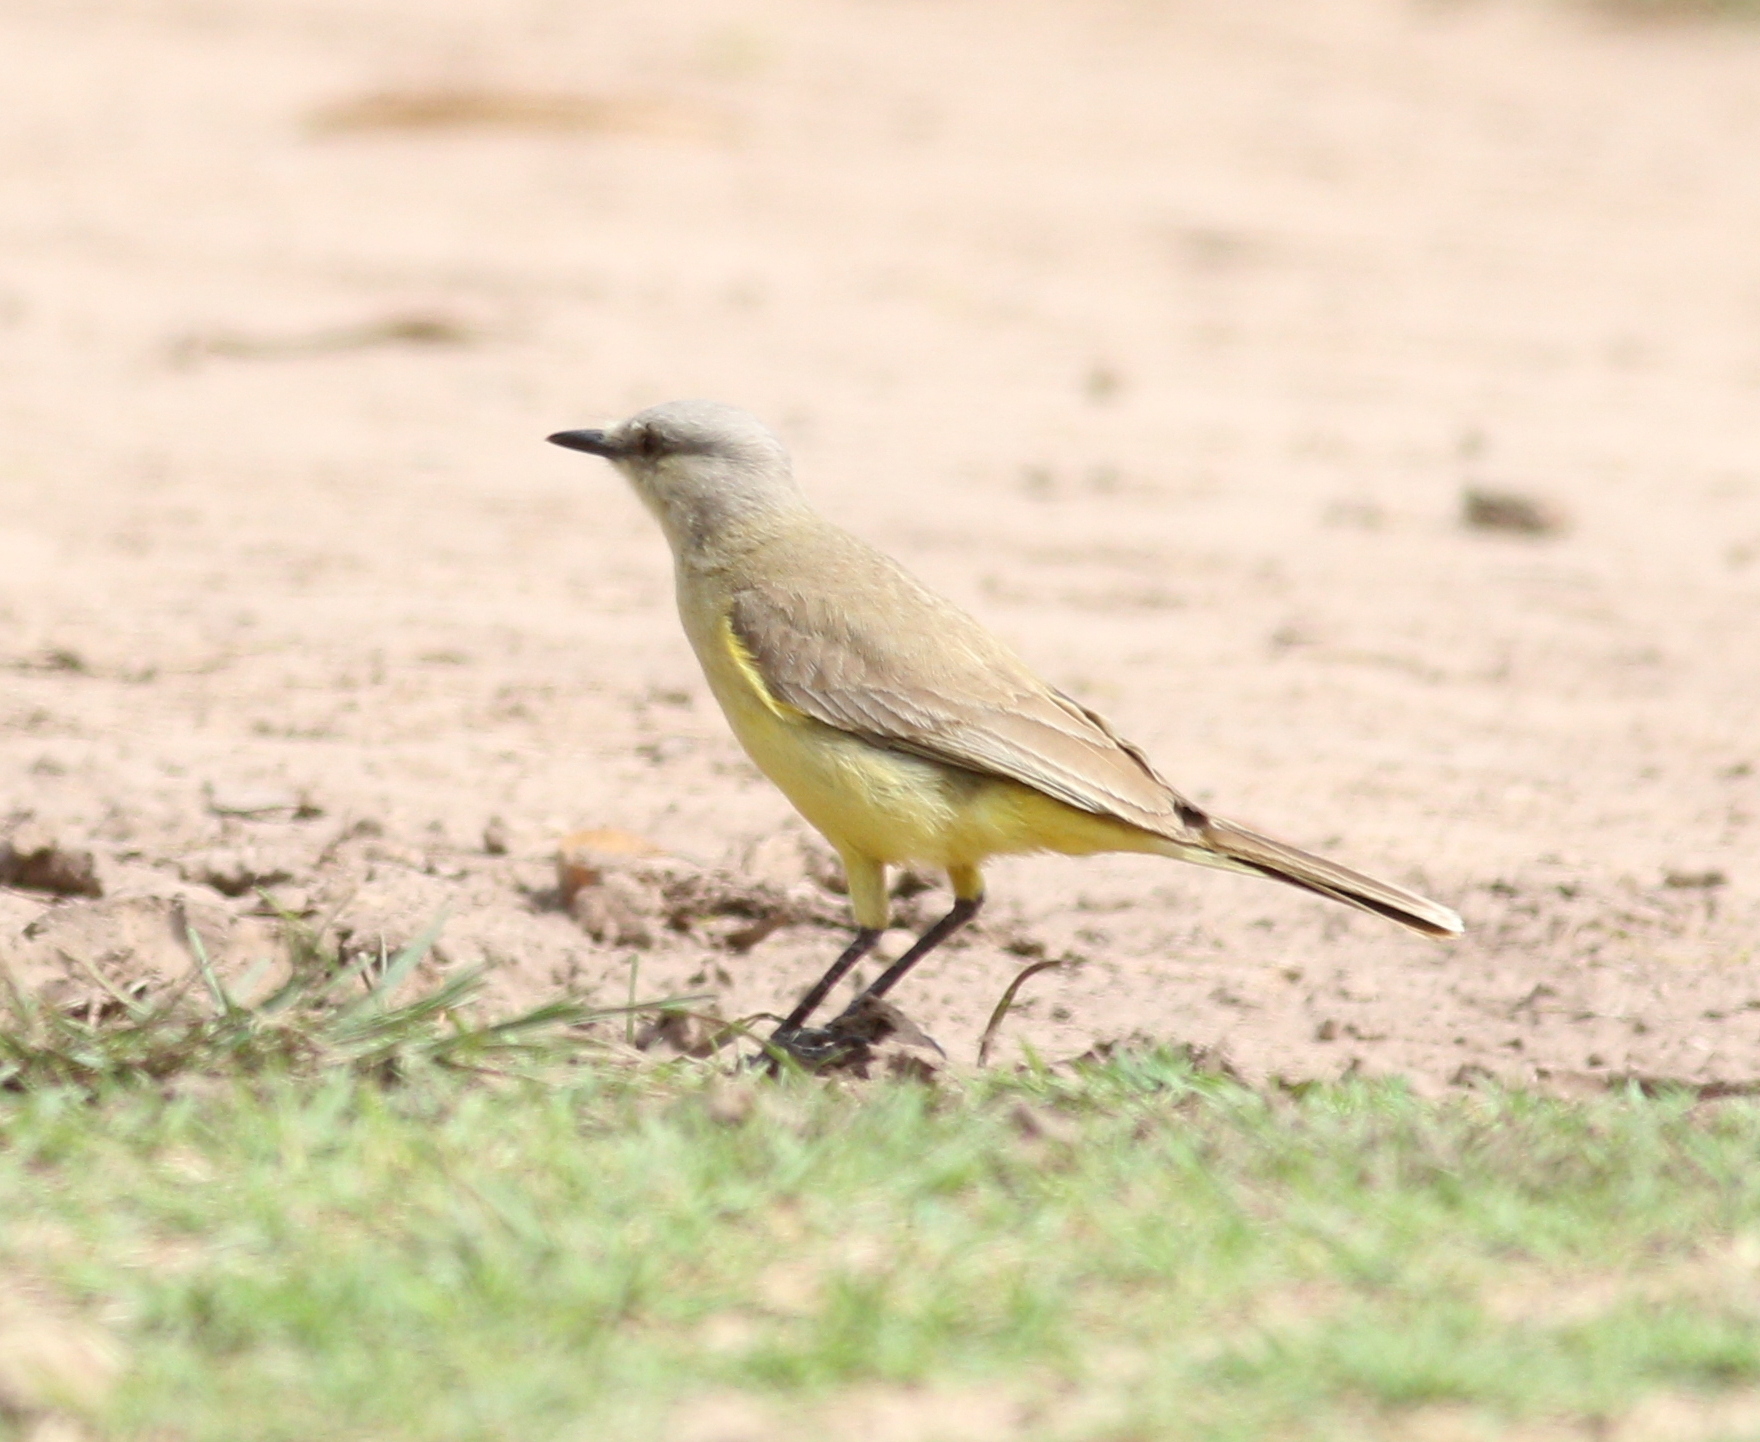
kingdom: Animalia
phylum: Chordata
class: Aves
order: Passeriformes
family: Tyrannidae
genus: Machetornis
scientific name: Machetornis rixosa
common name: Cattle tyrant
